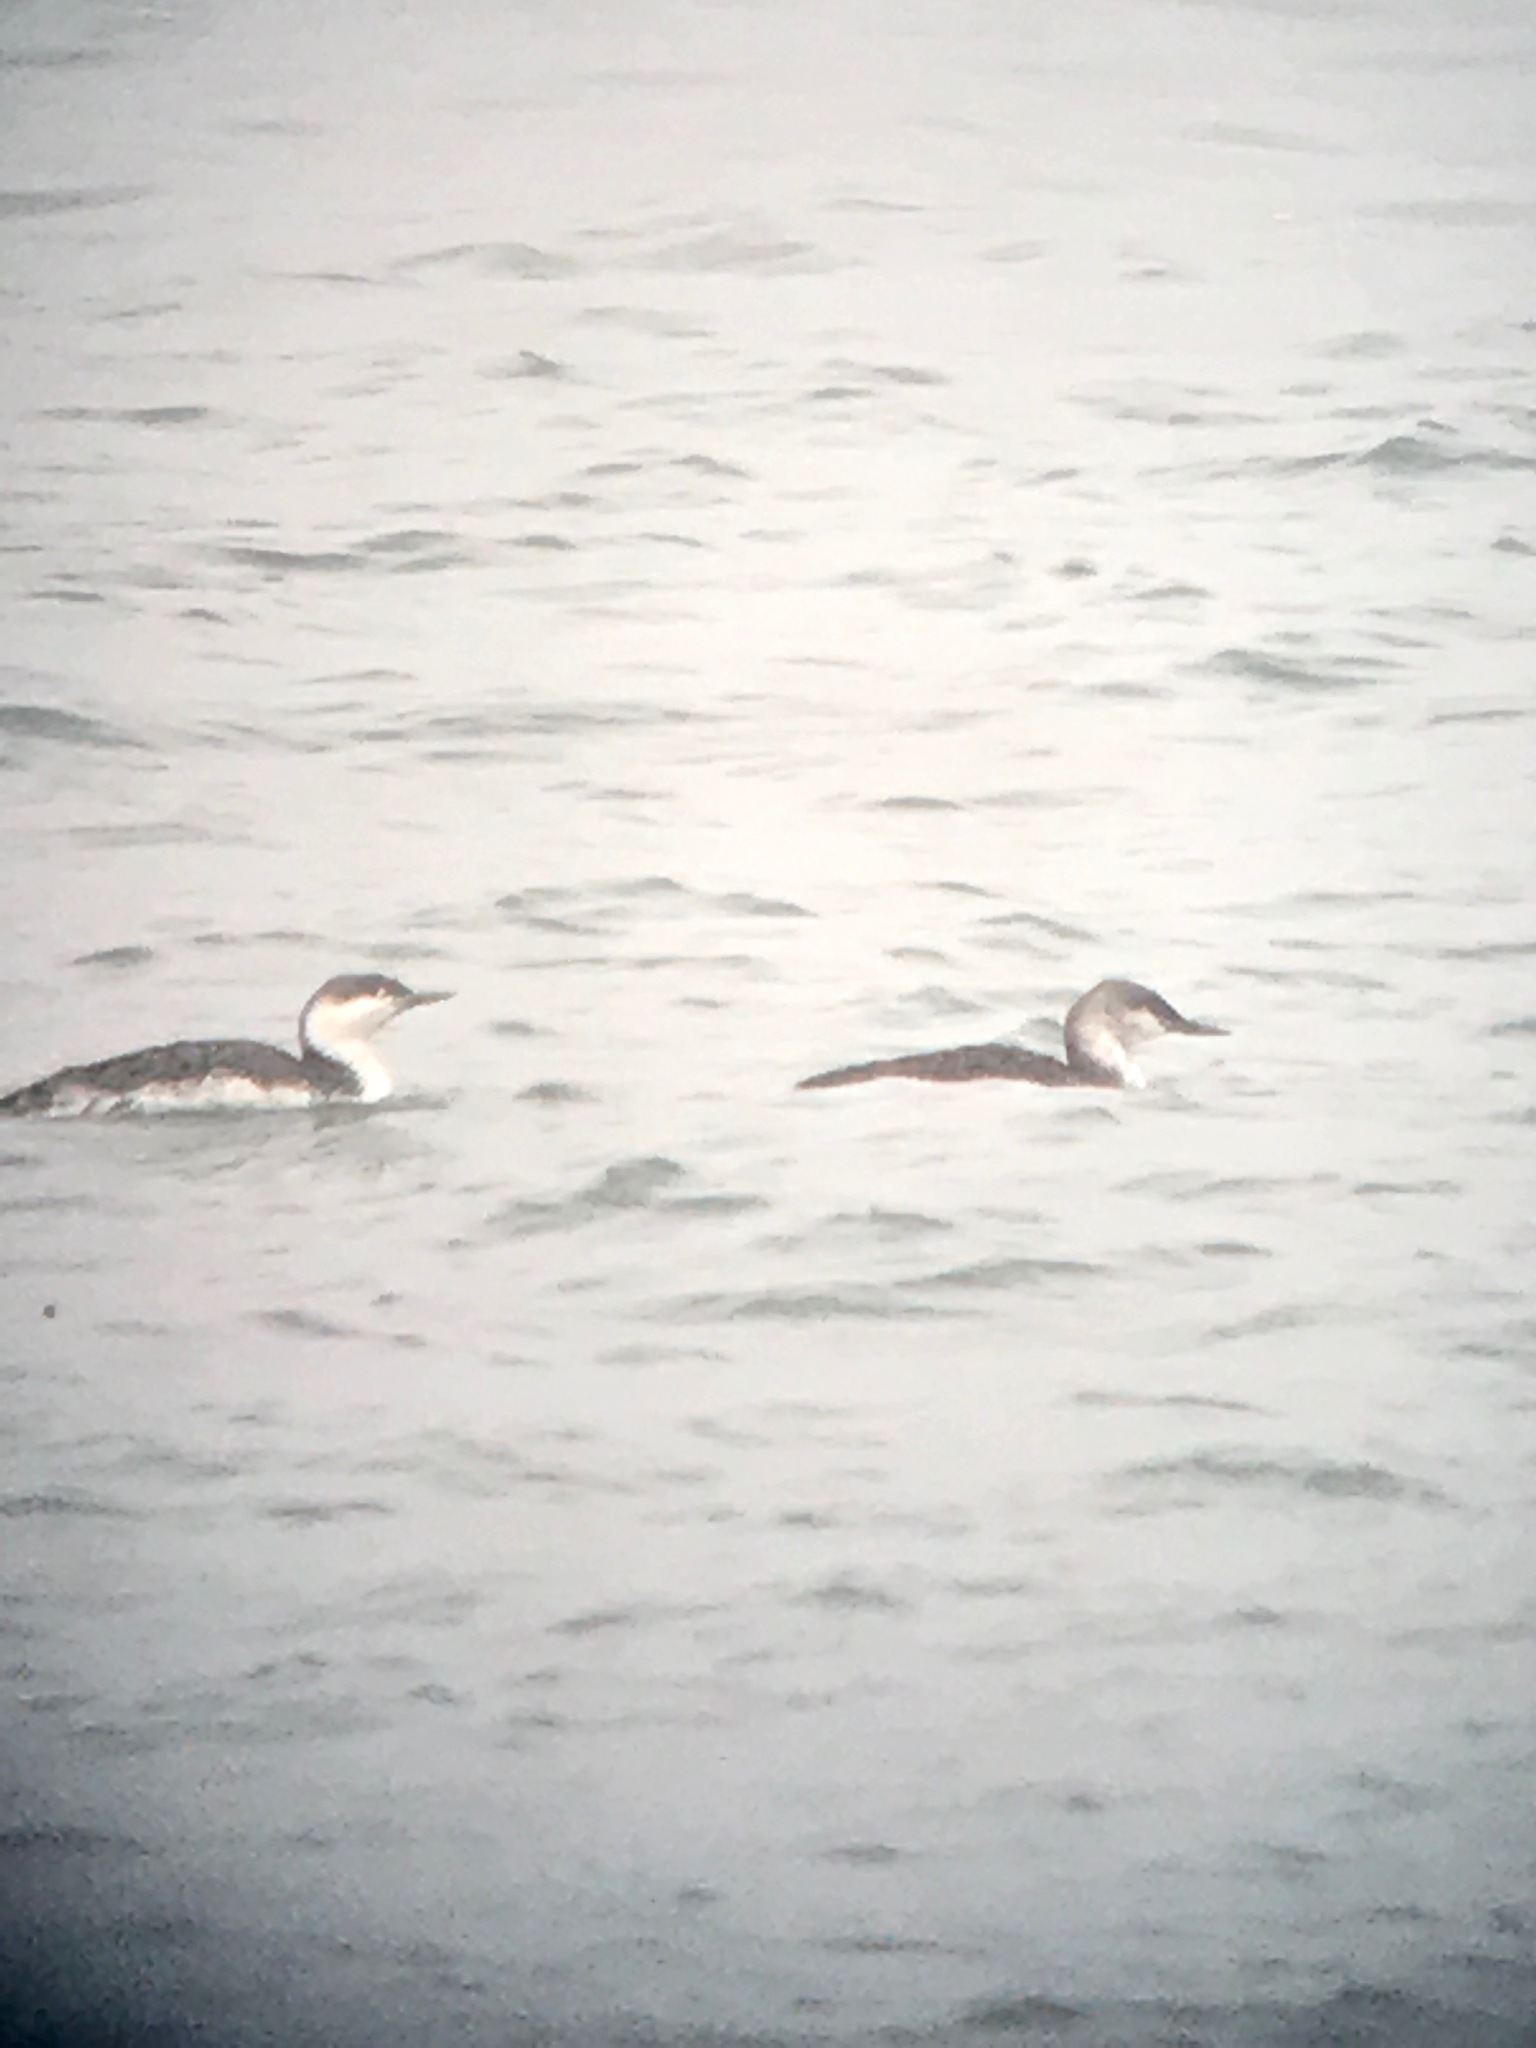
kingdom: Animalia
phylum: Chordata
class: Aves
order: Gaviiformes
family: Gaviidae
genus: Gavia
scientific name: Gavia stellata
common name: Red-throated loon
